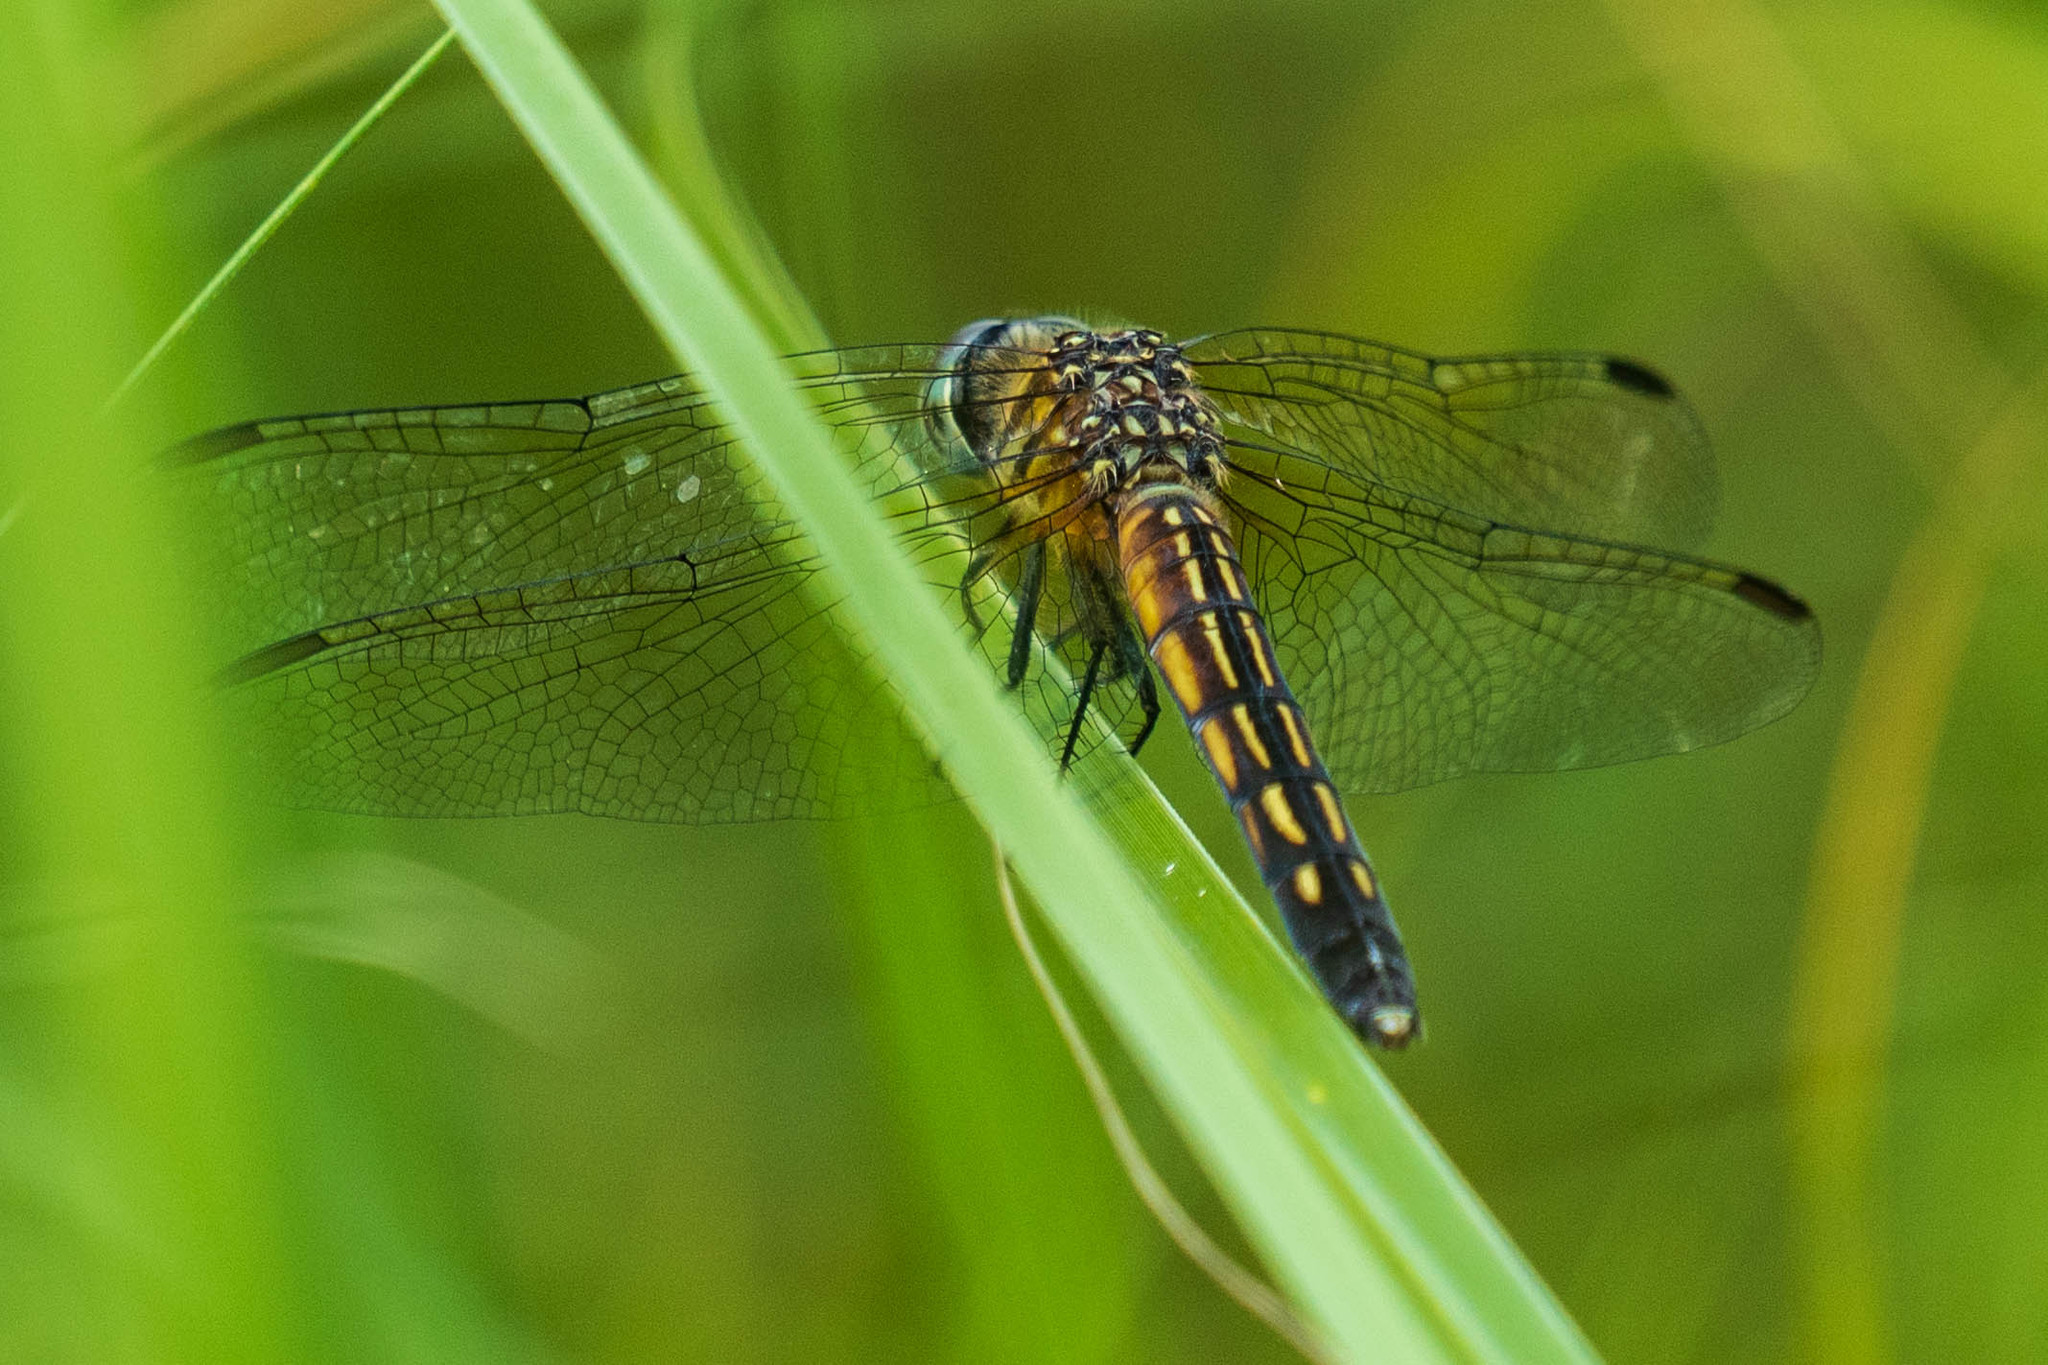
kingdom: Animalia
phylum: Arthropoda
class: Insecta
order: Odonata
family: Libellulidae
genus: Pachydiplax
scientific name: Pachydiplax longipennis
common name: Blue dasher
